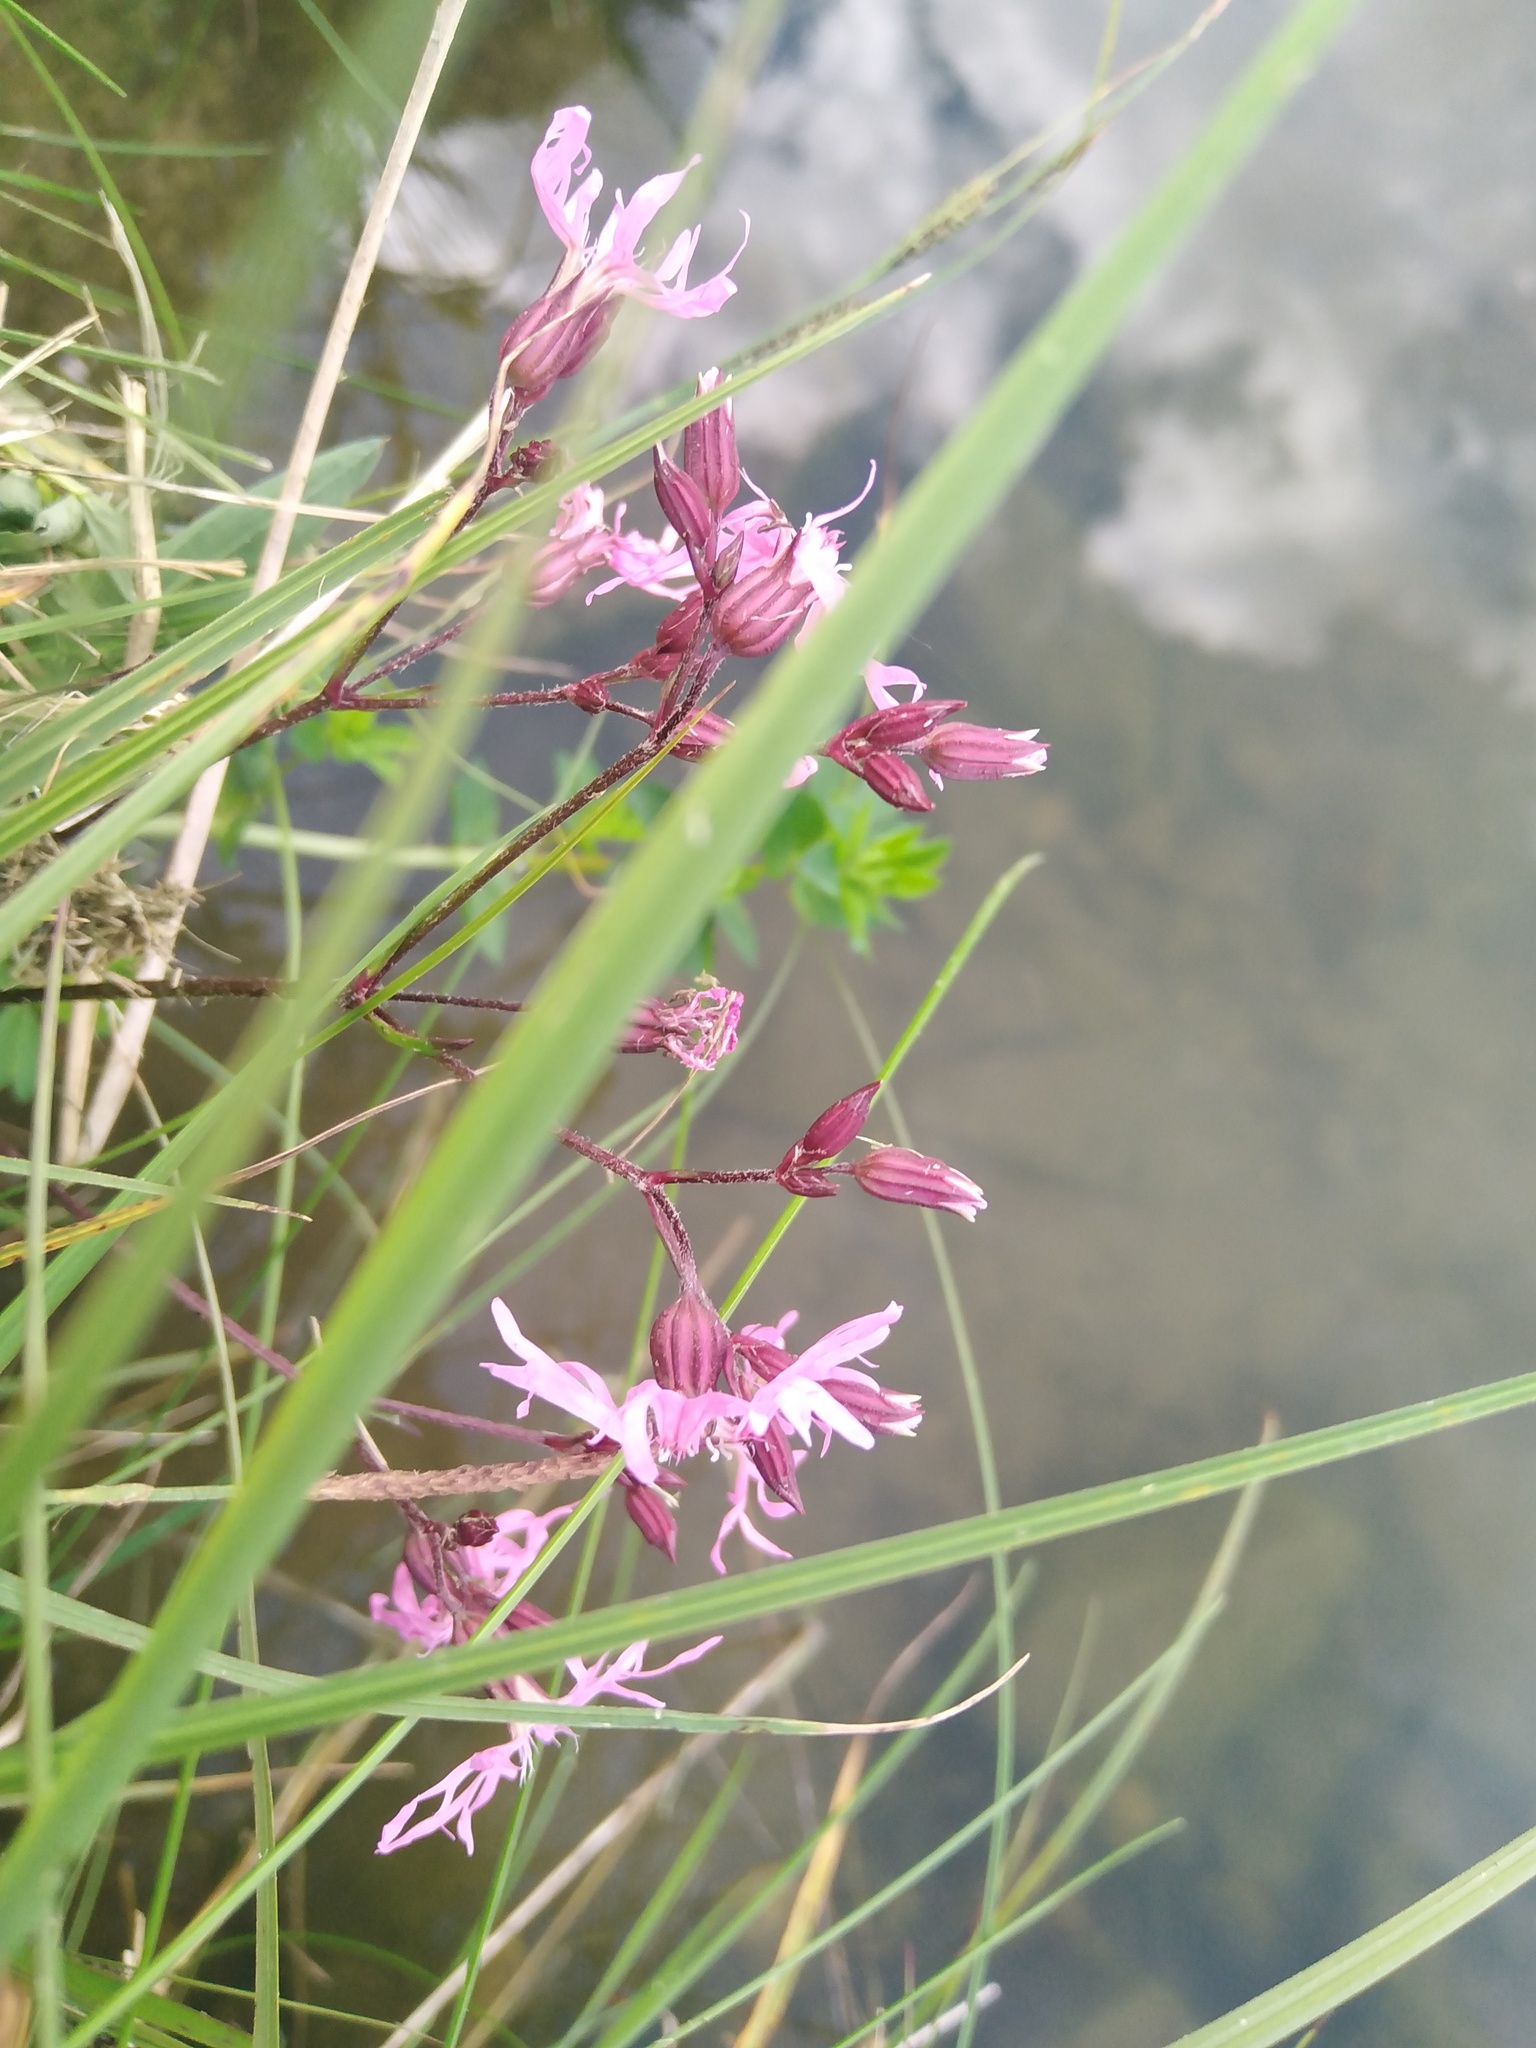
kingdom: Plantae
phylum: Tracheophyta
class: Magnoliopsida
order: Caryophyllales
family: Caryophyllaceae
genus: Silene
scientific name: Silene flos-cuculi
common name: Ragged-robin
